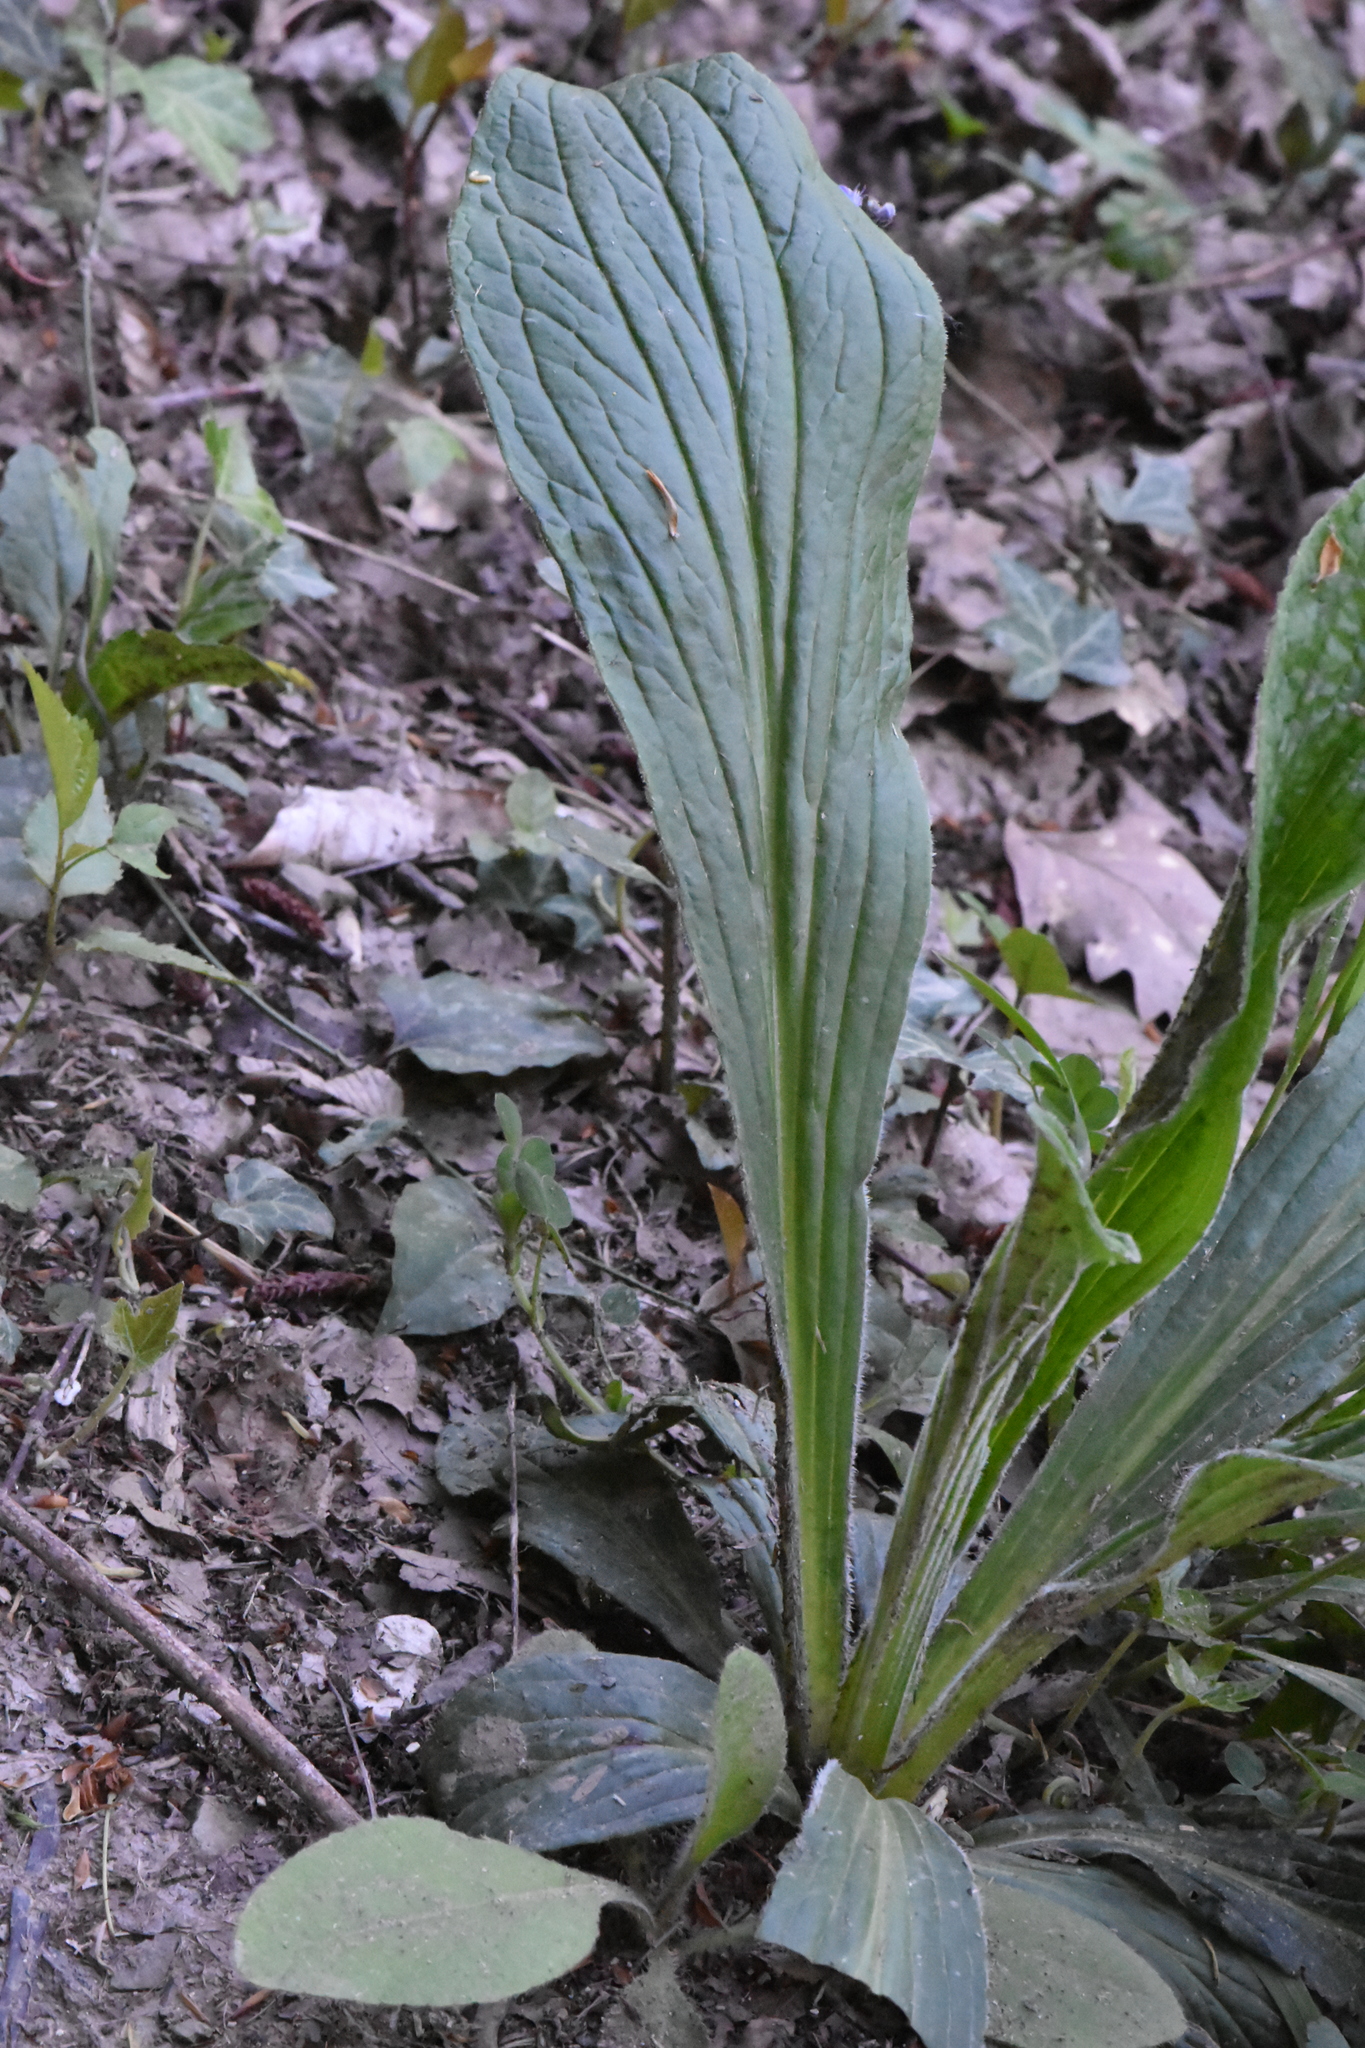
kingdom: Plantae
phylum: Tracheophyta
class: Magnoliopsida
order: Boraginales
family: Boraginaceae
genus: Cynoglossum
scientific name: Cynoglossum officinale
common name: Hound's-tongue
